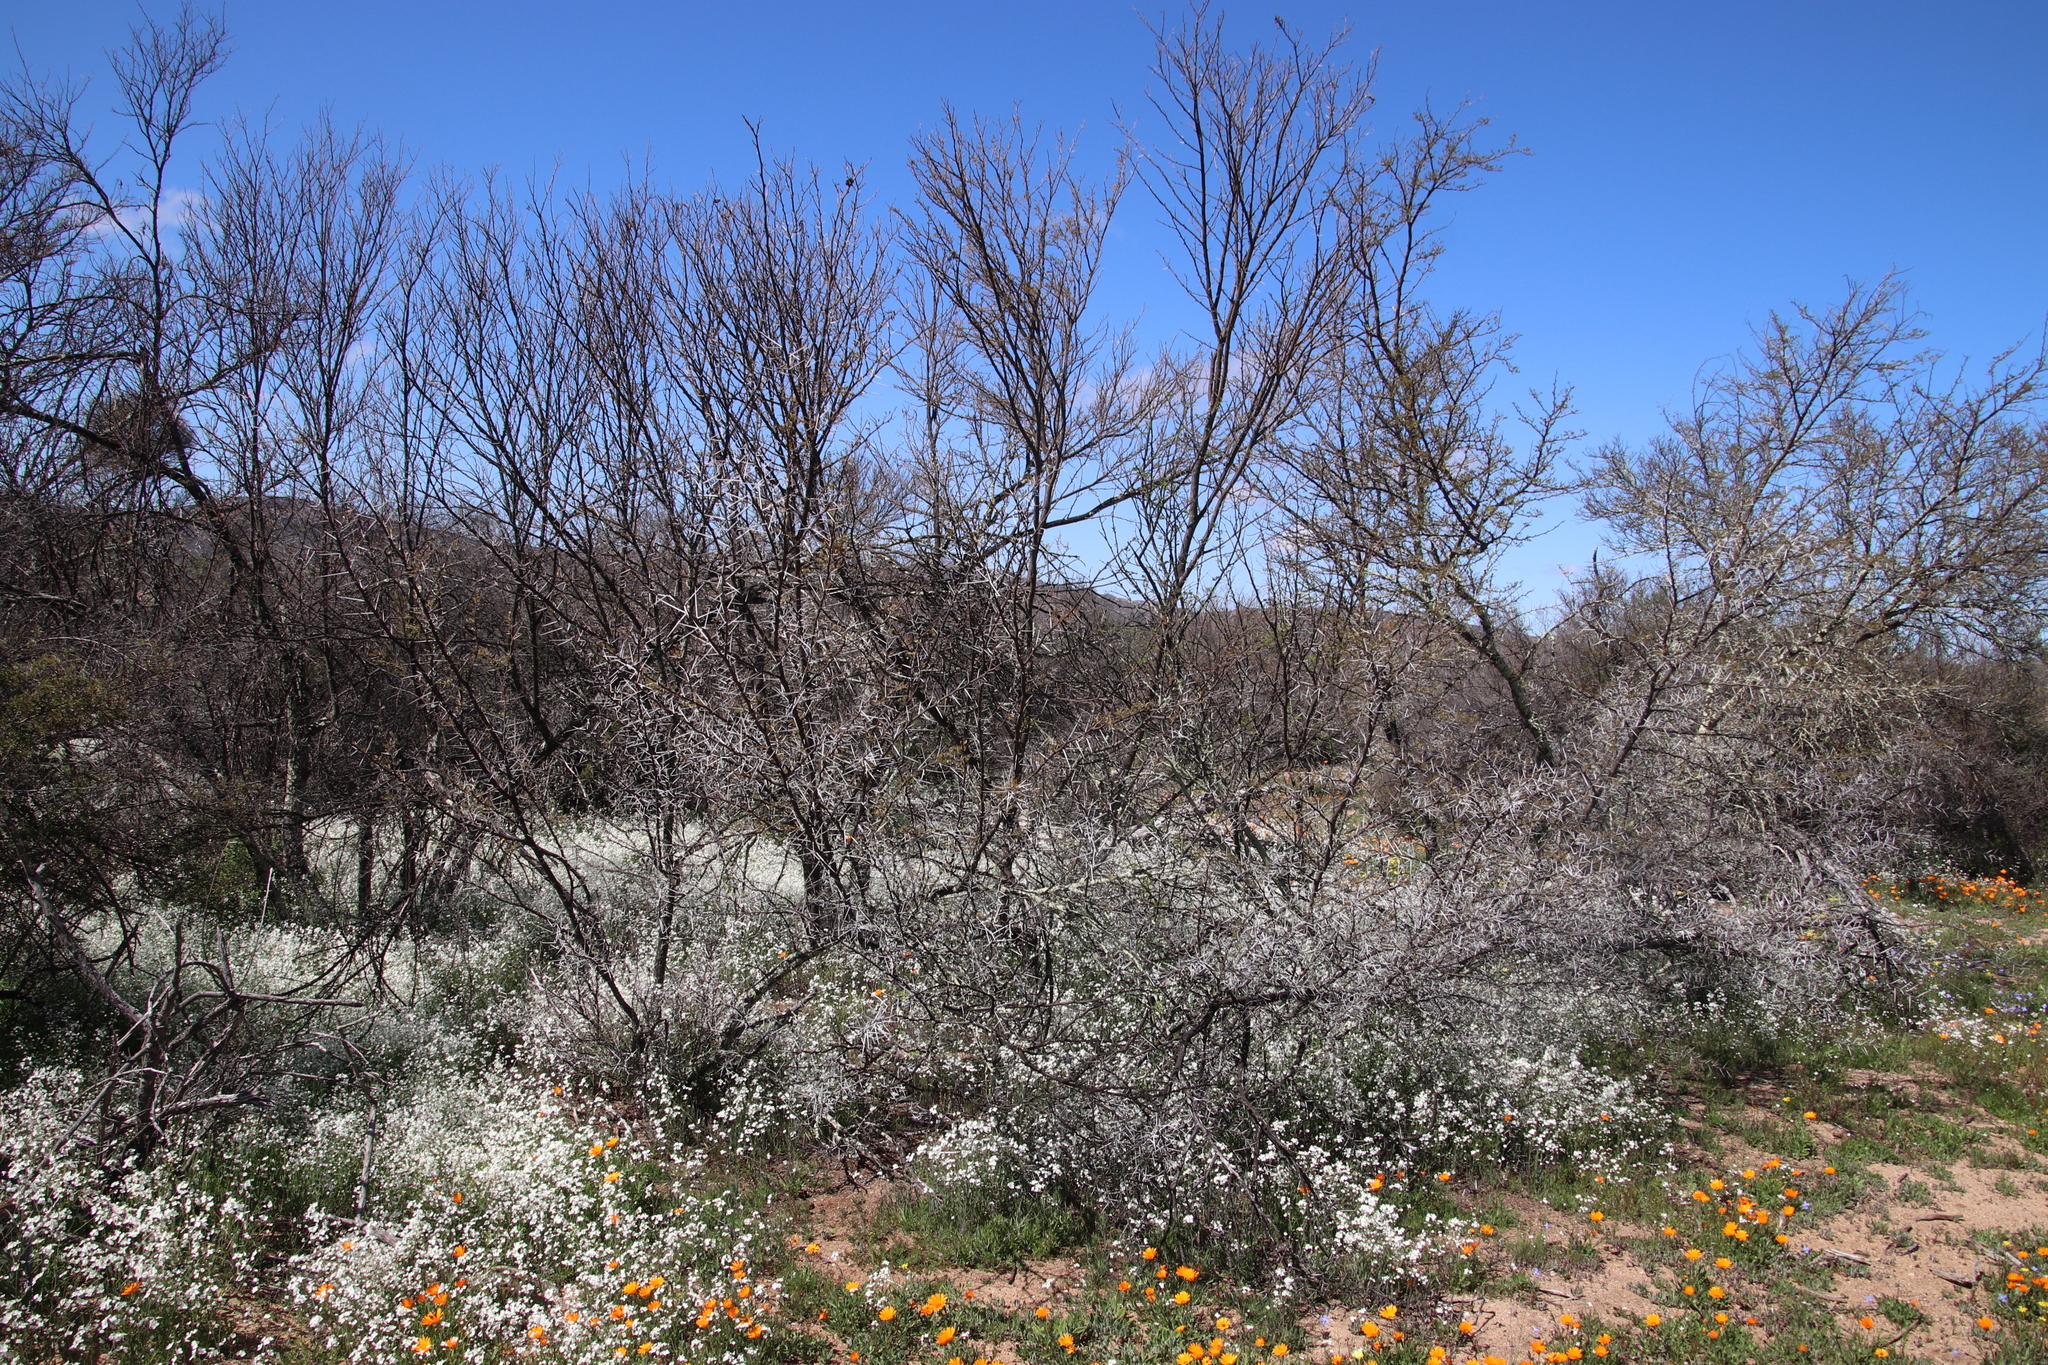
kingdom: Plantae
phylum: Tracheophyta
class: Magnoliopsida
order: Fabales
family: Fabaceae
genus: Vachellia
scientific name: Vachellia karroo
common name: Sweet thorn
